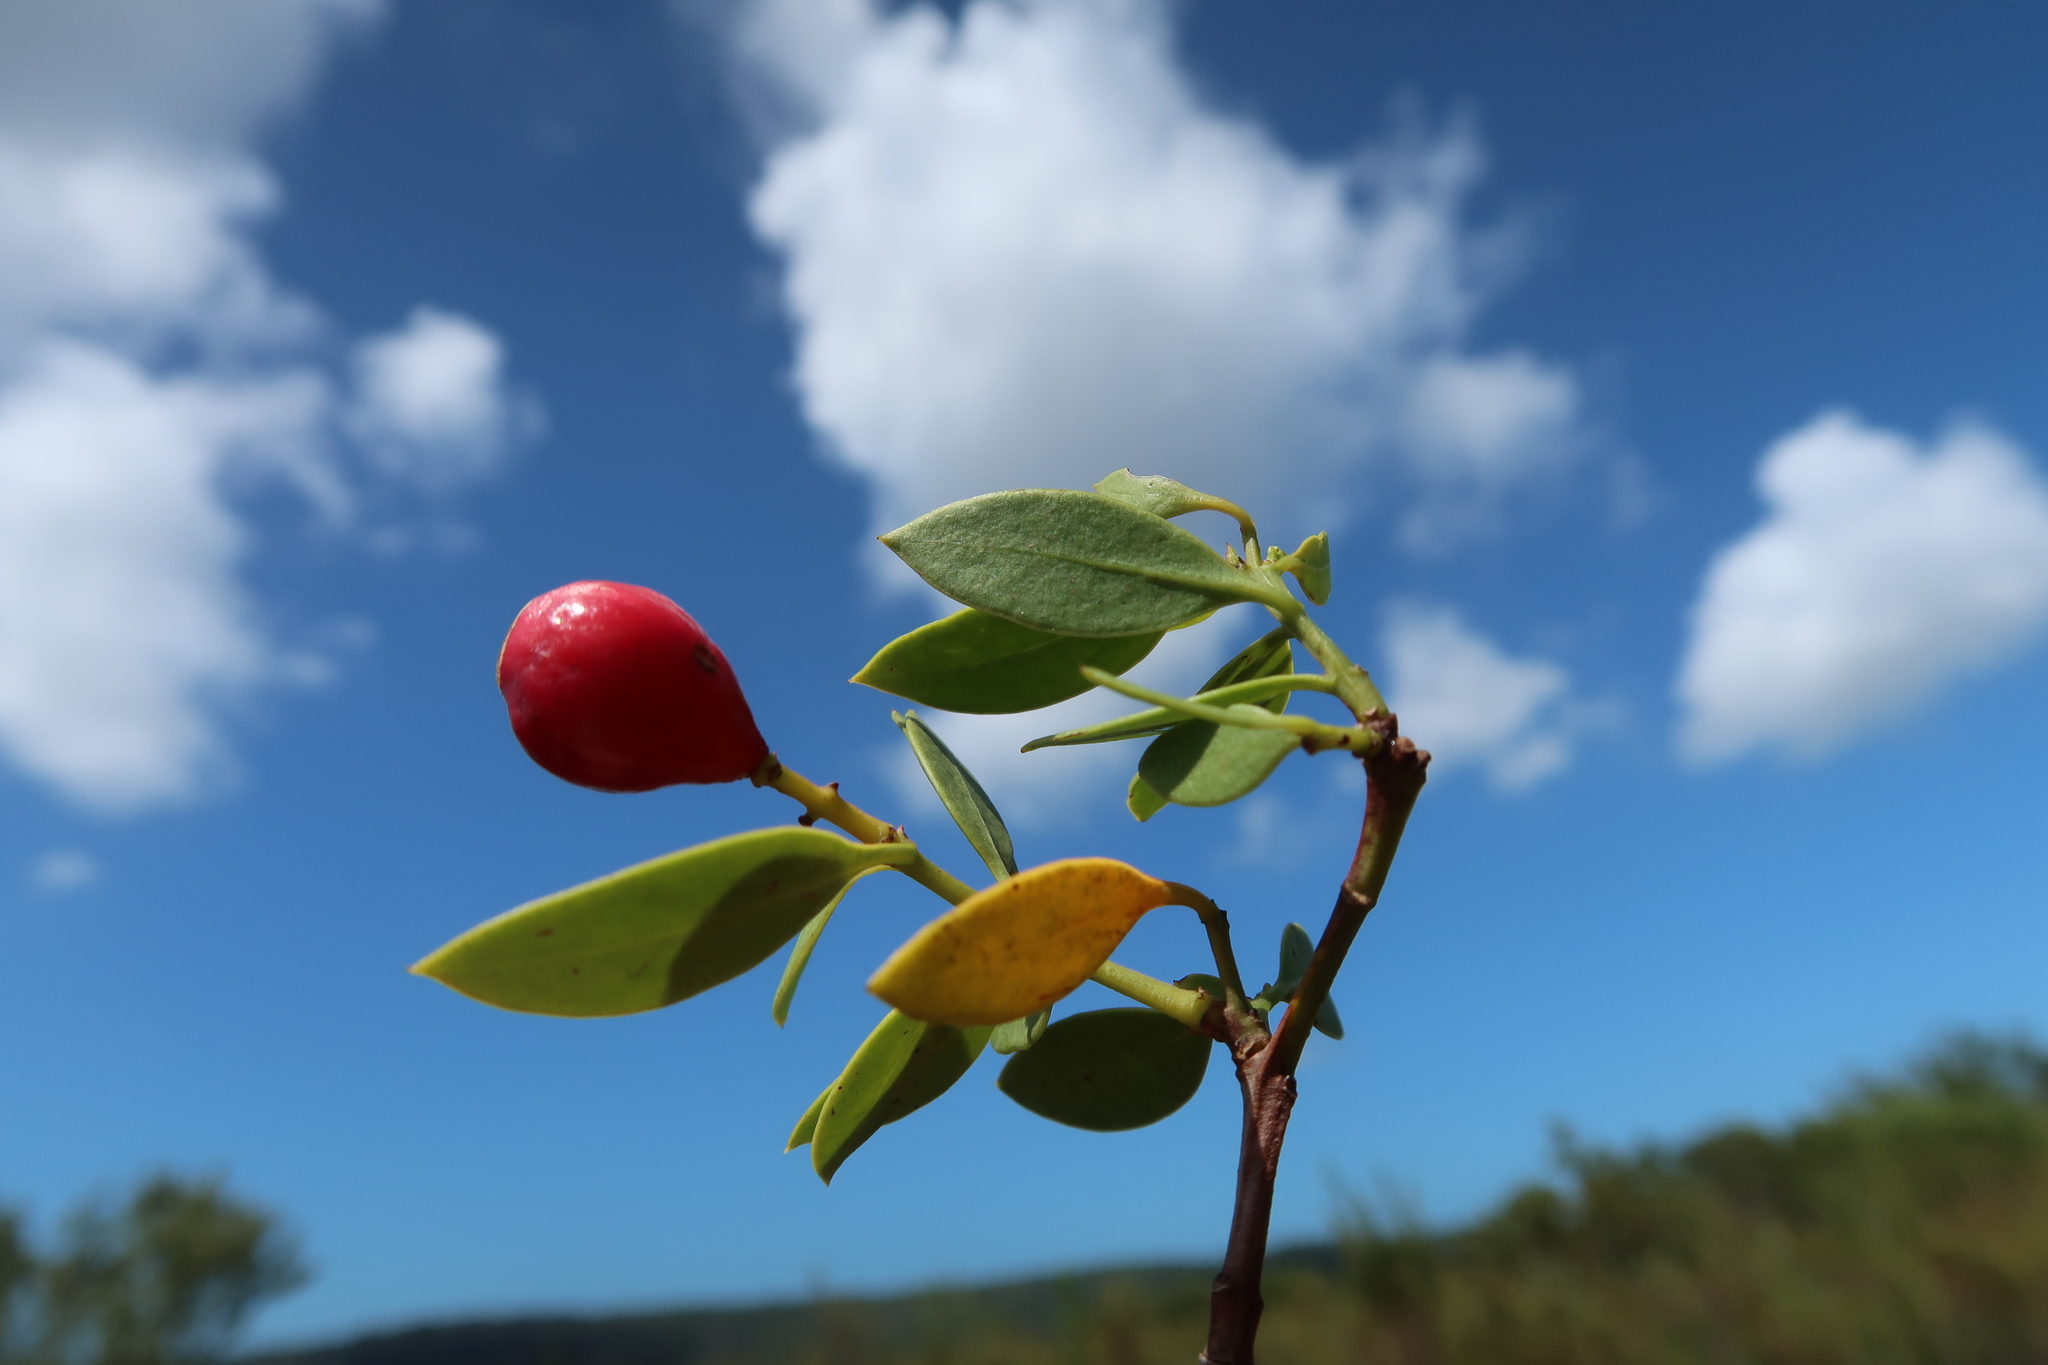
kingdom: Plantae
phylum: Tracheophyta
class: Magnoliopsida
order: Santalales
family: Santalaceae
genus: Osyris
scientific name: Osyris compressa
